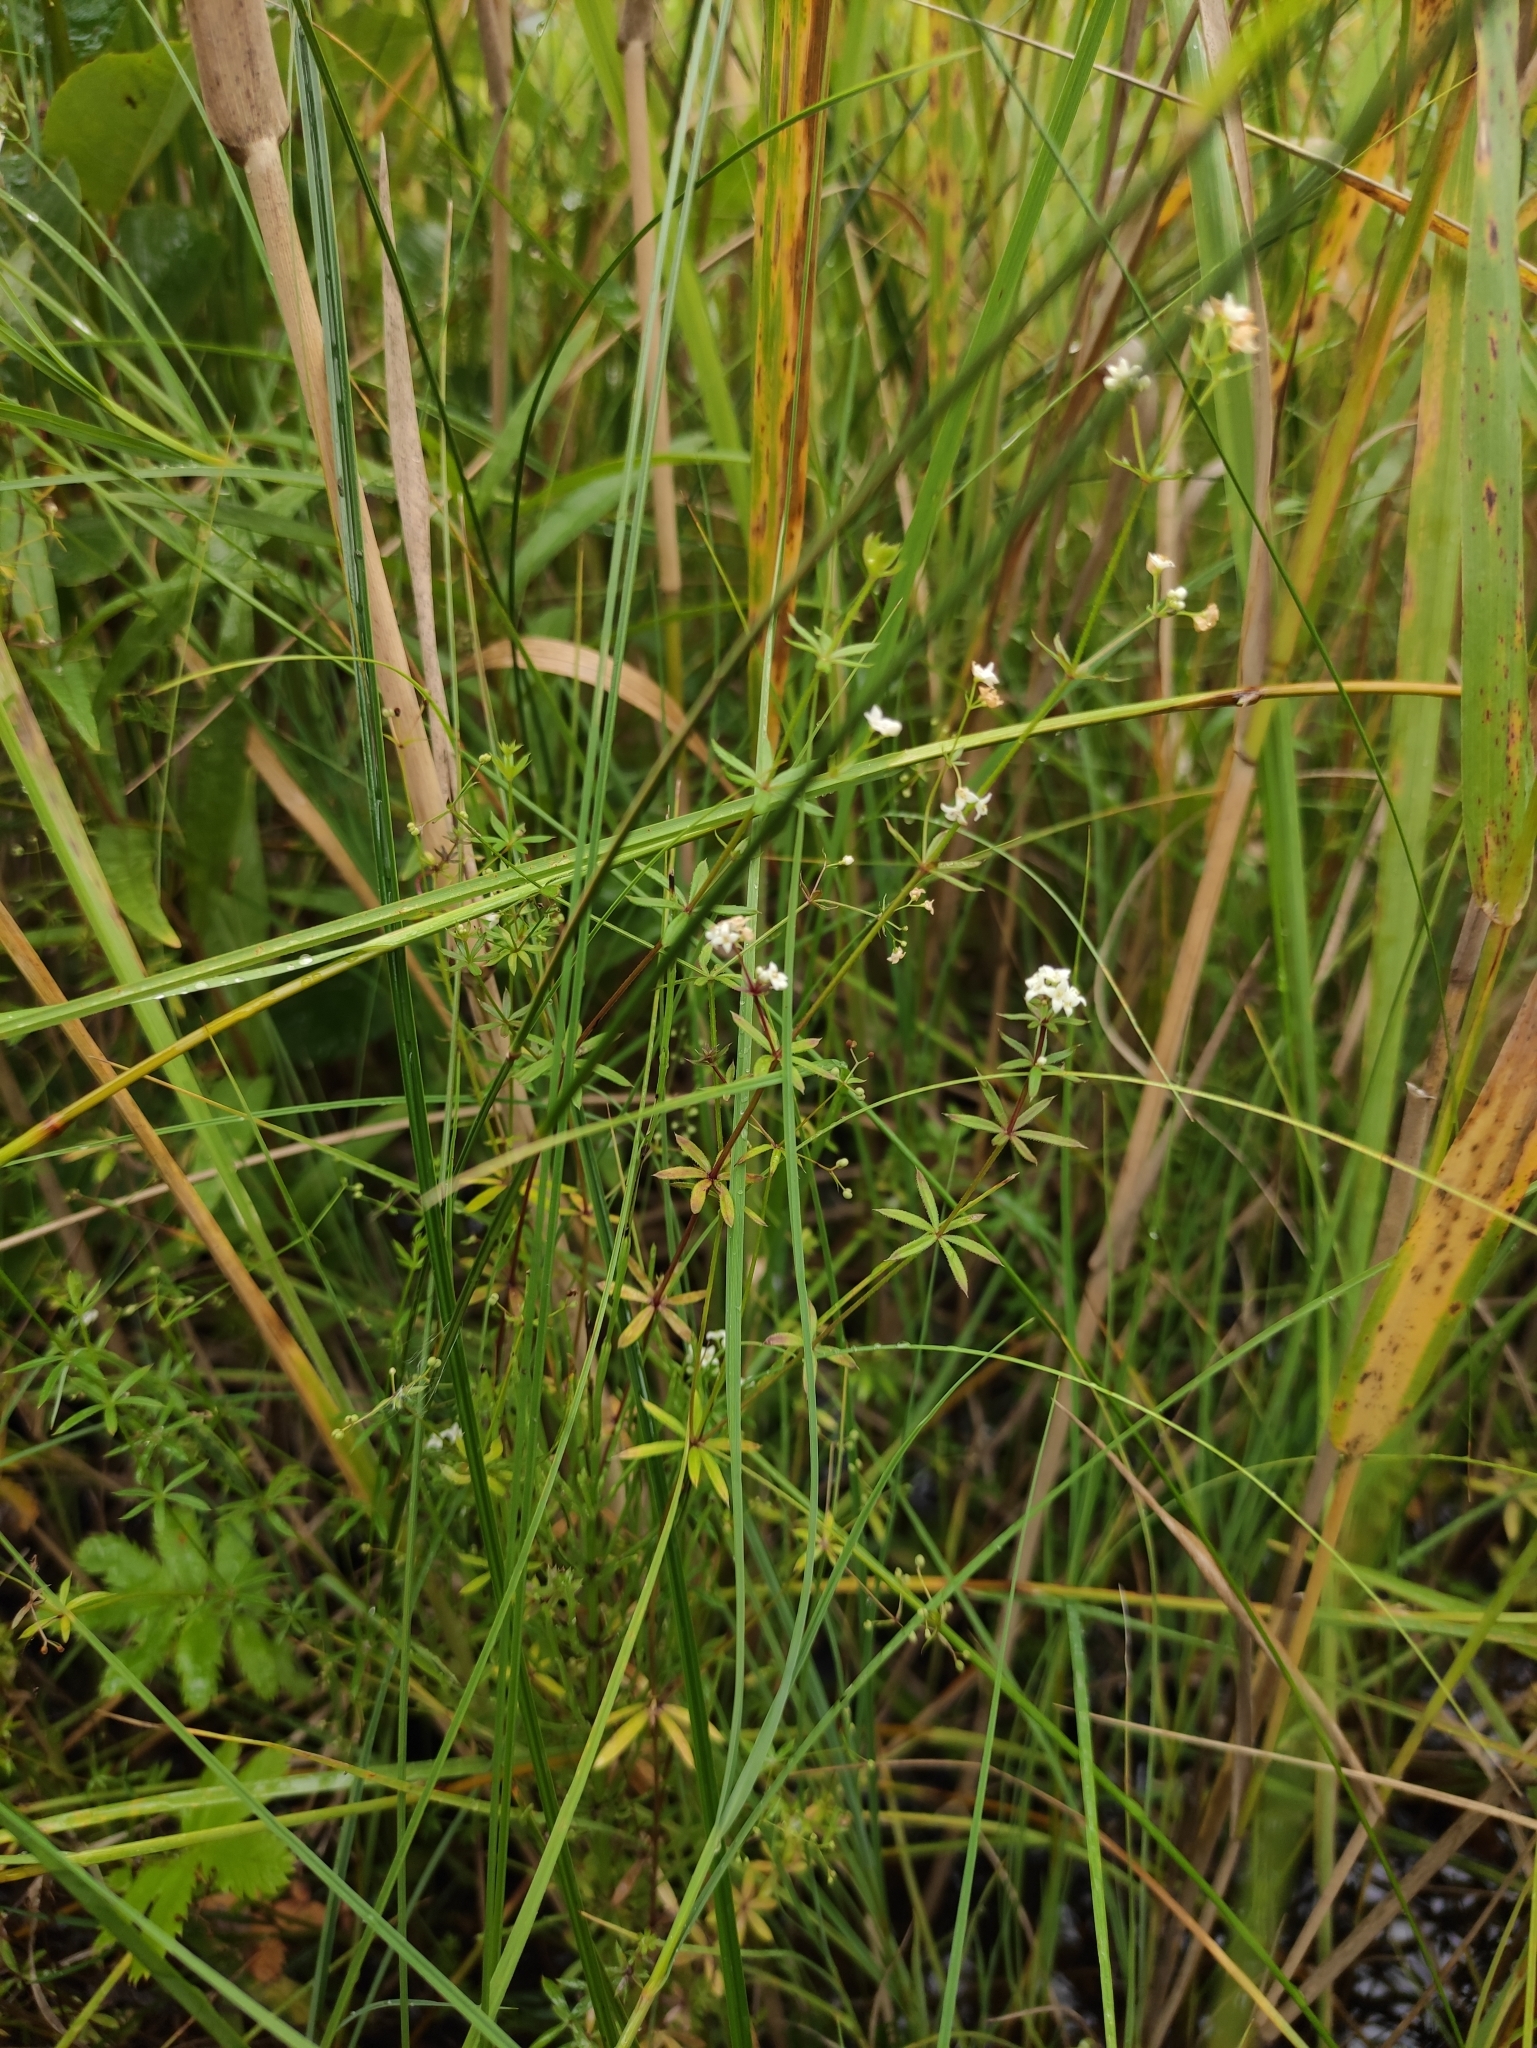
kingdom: Plantae
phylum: Tracheophyta
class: Magnoliopsida
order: Gentianales
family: Rubiaceae
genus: Galium
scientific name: Galium uliginosum
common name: Fen bedstraw
